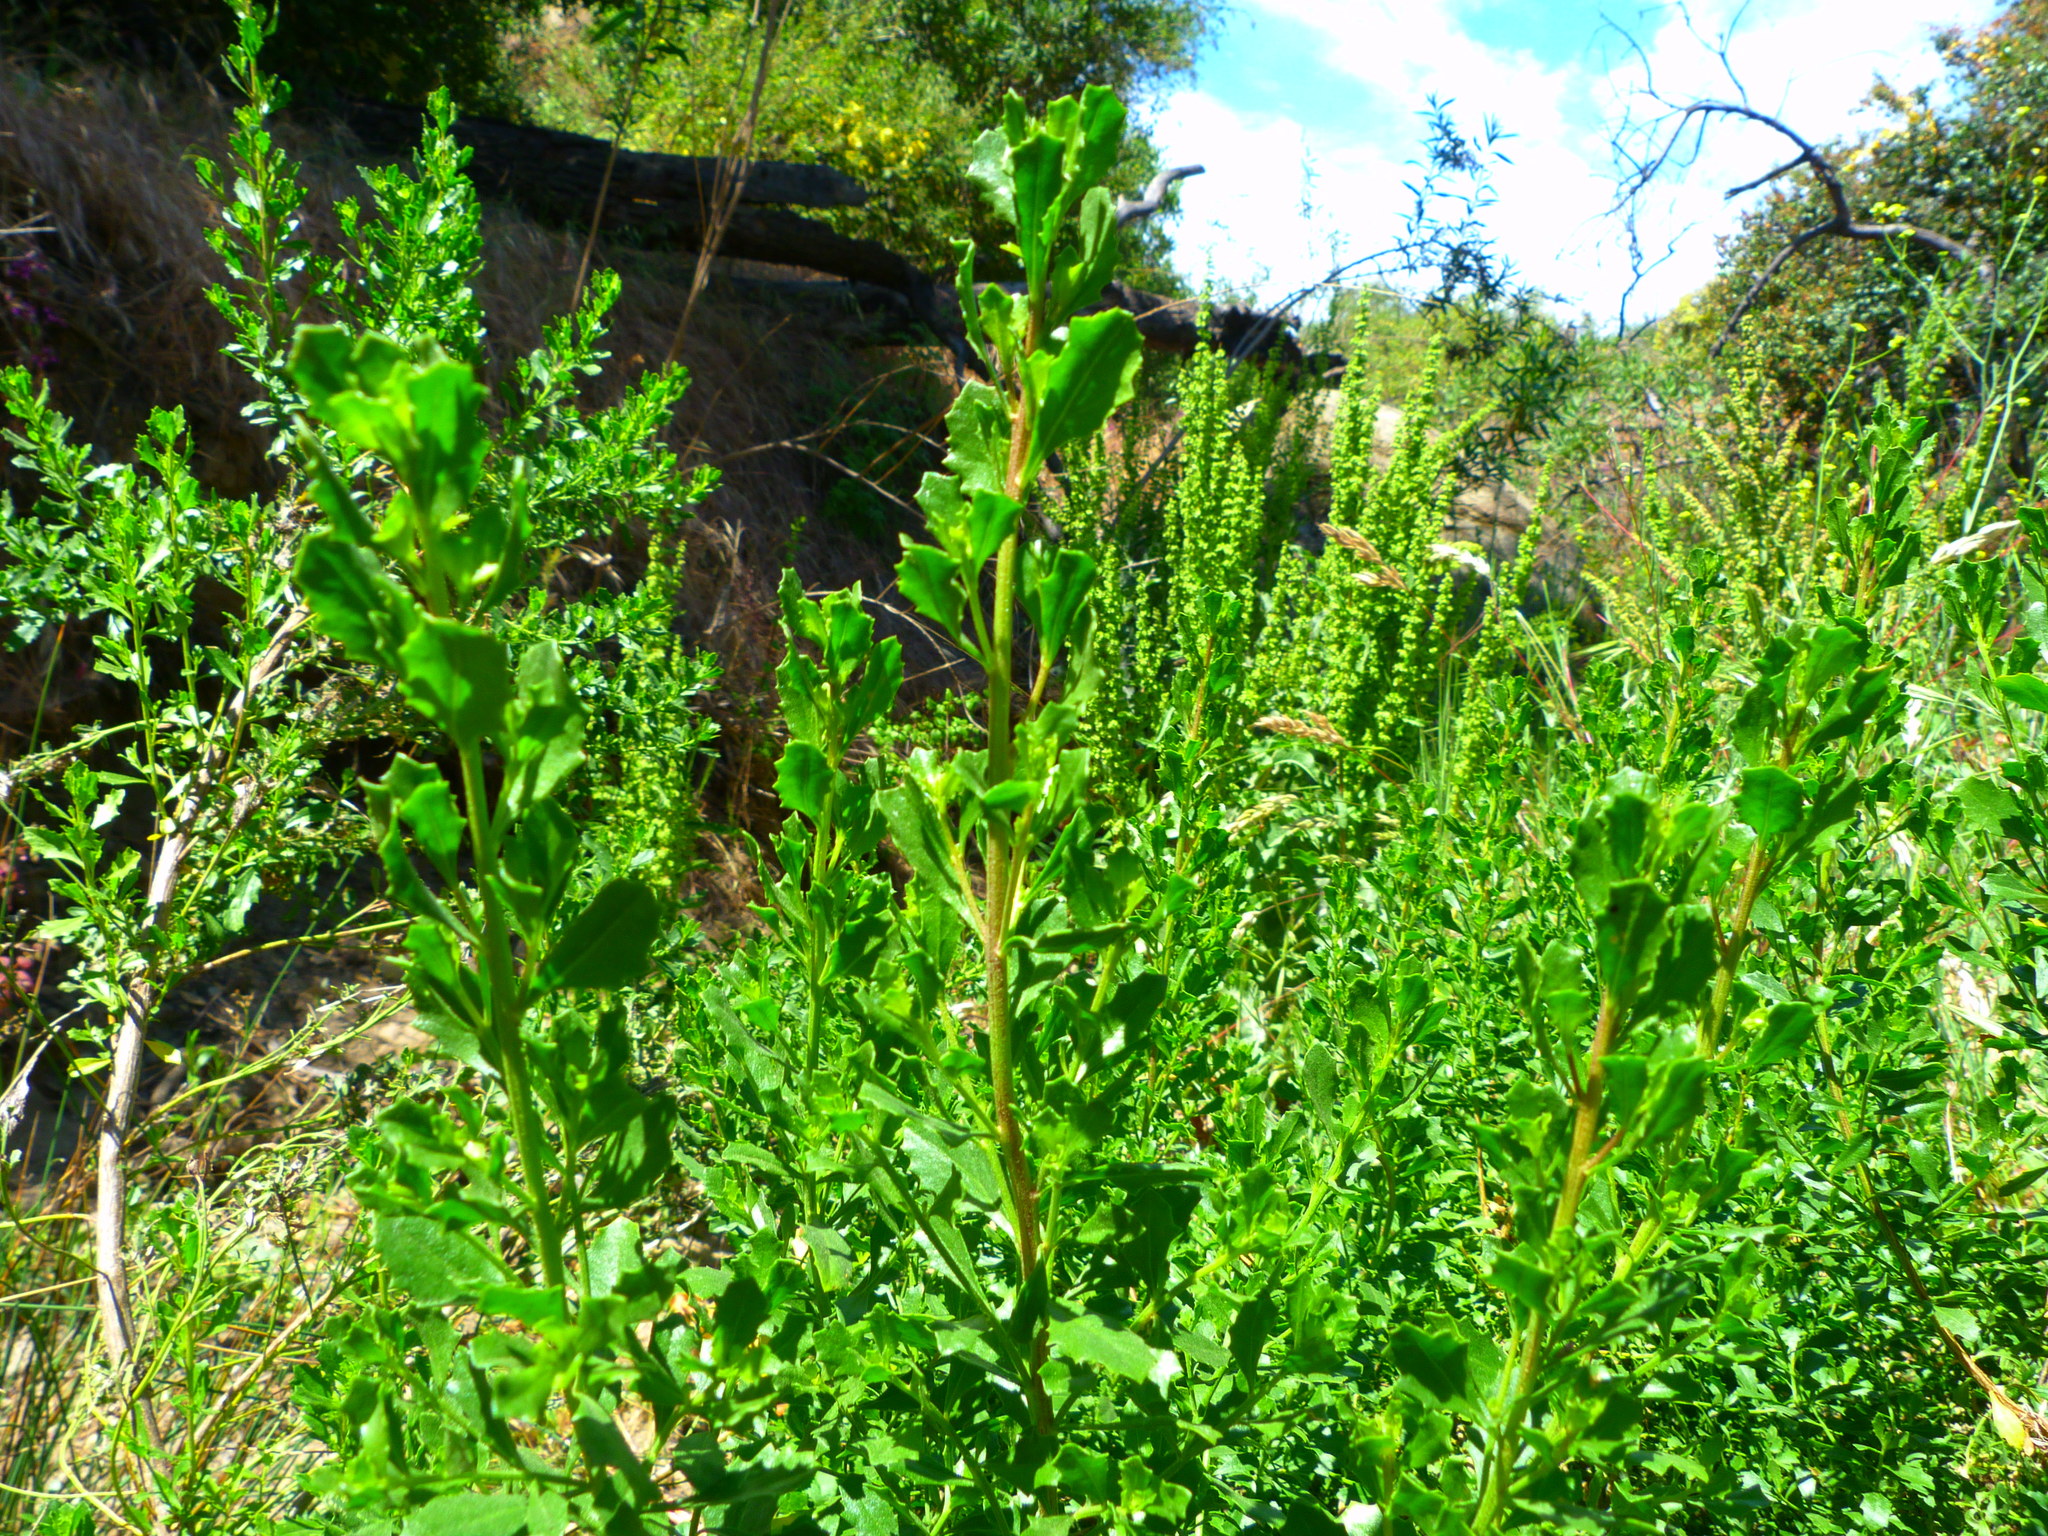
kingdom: Plantae
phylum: Tracheophyta
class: Magnoliopsida
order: Asterales
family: Asteraceae
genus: Baccharis
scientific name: Baccharis pilularis
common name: Coyotebrush
